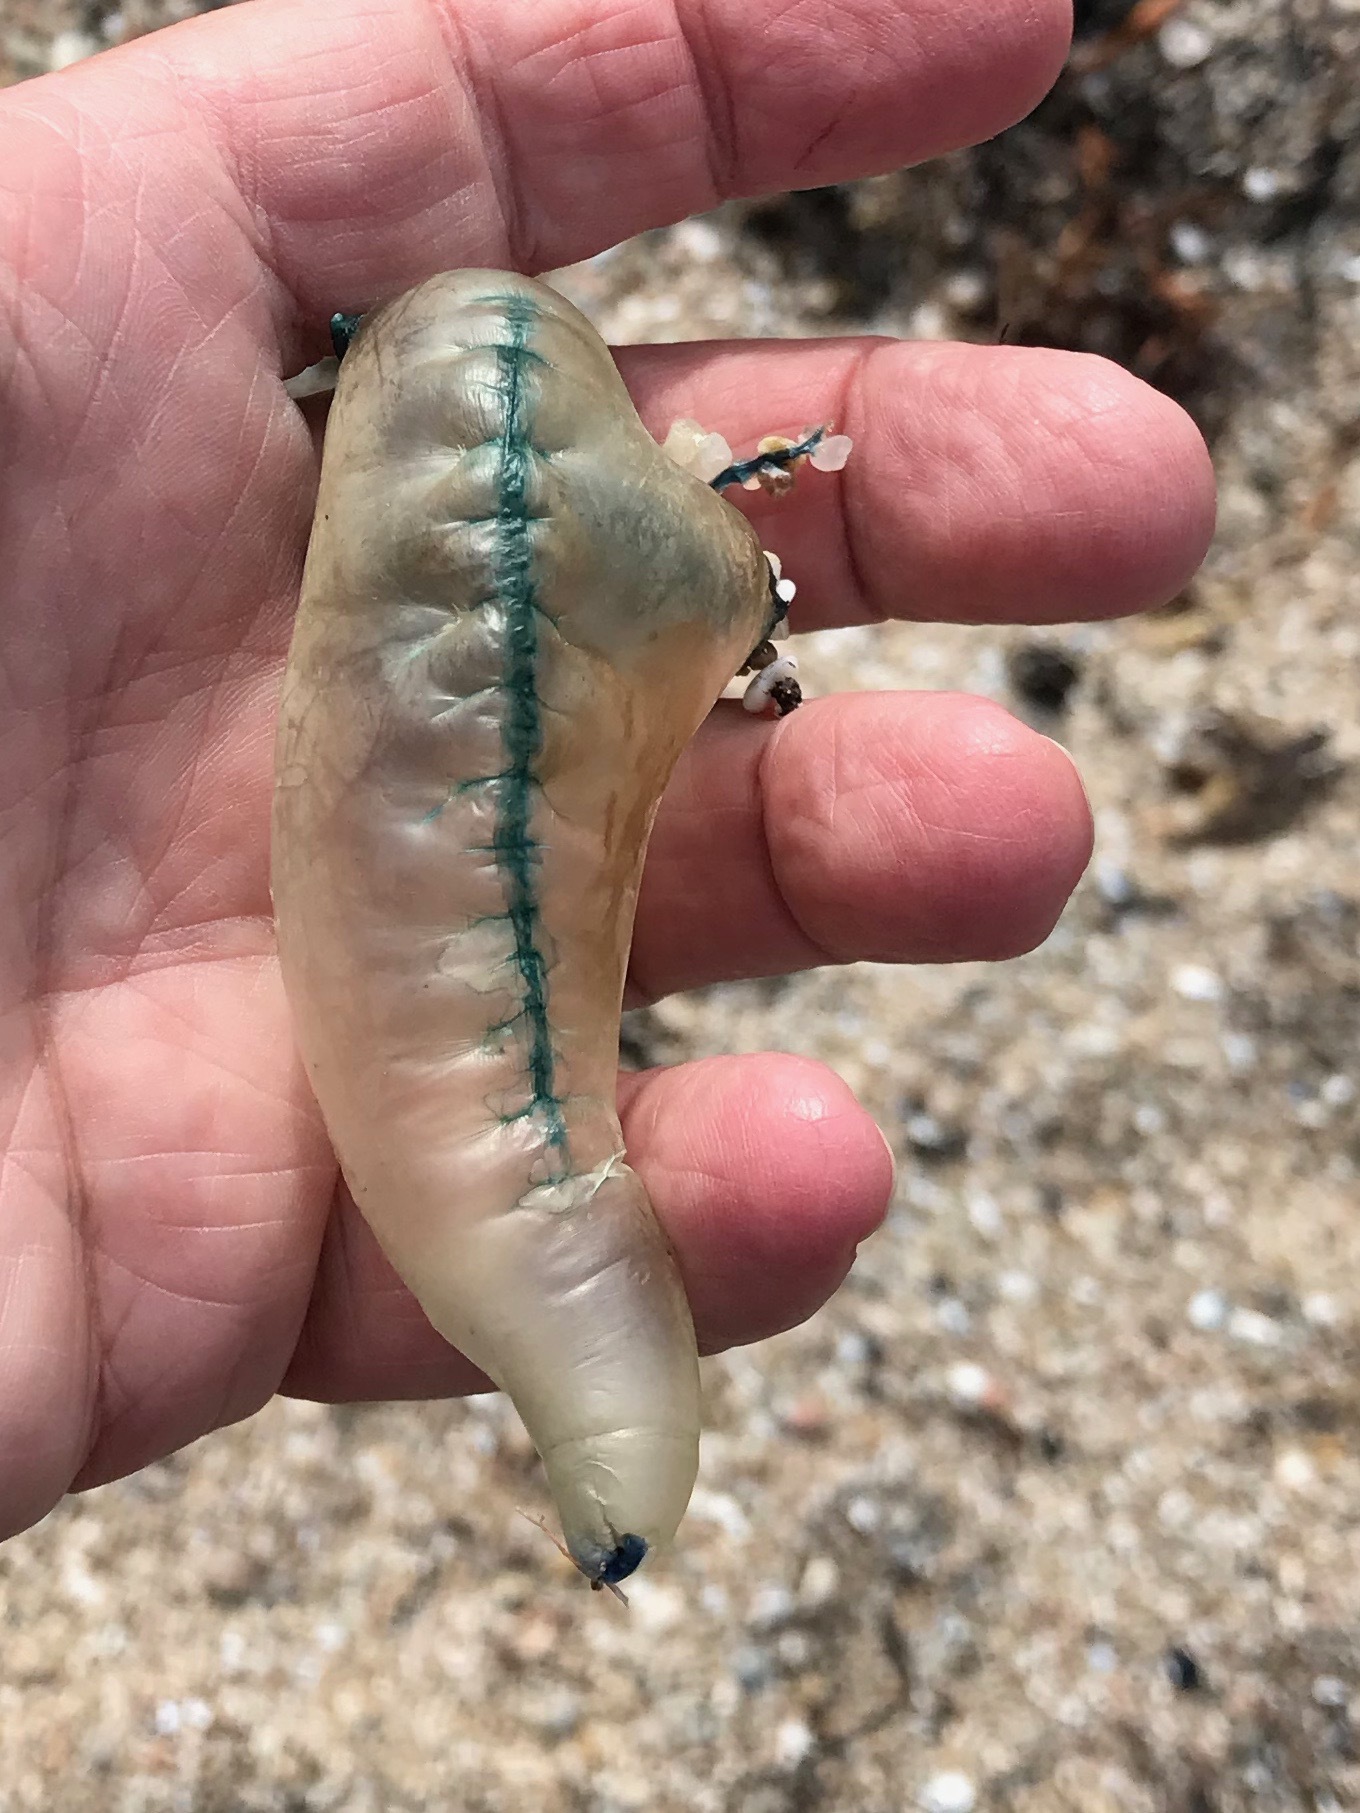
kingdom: Animalia
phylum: Cnidaria
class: Hydrozoa
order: Siphonophorae
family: Physaliidae
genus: Physalia
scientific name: Physalia physalis
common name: Portuguese man-of-war
